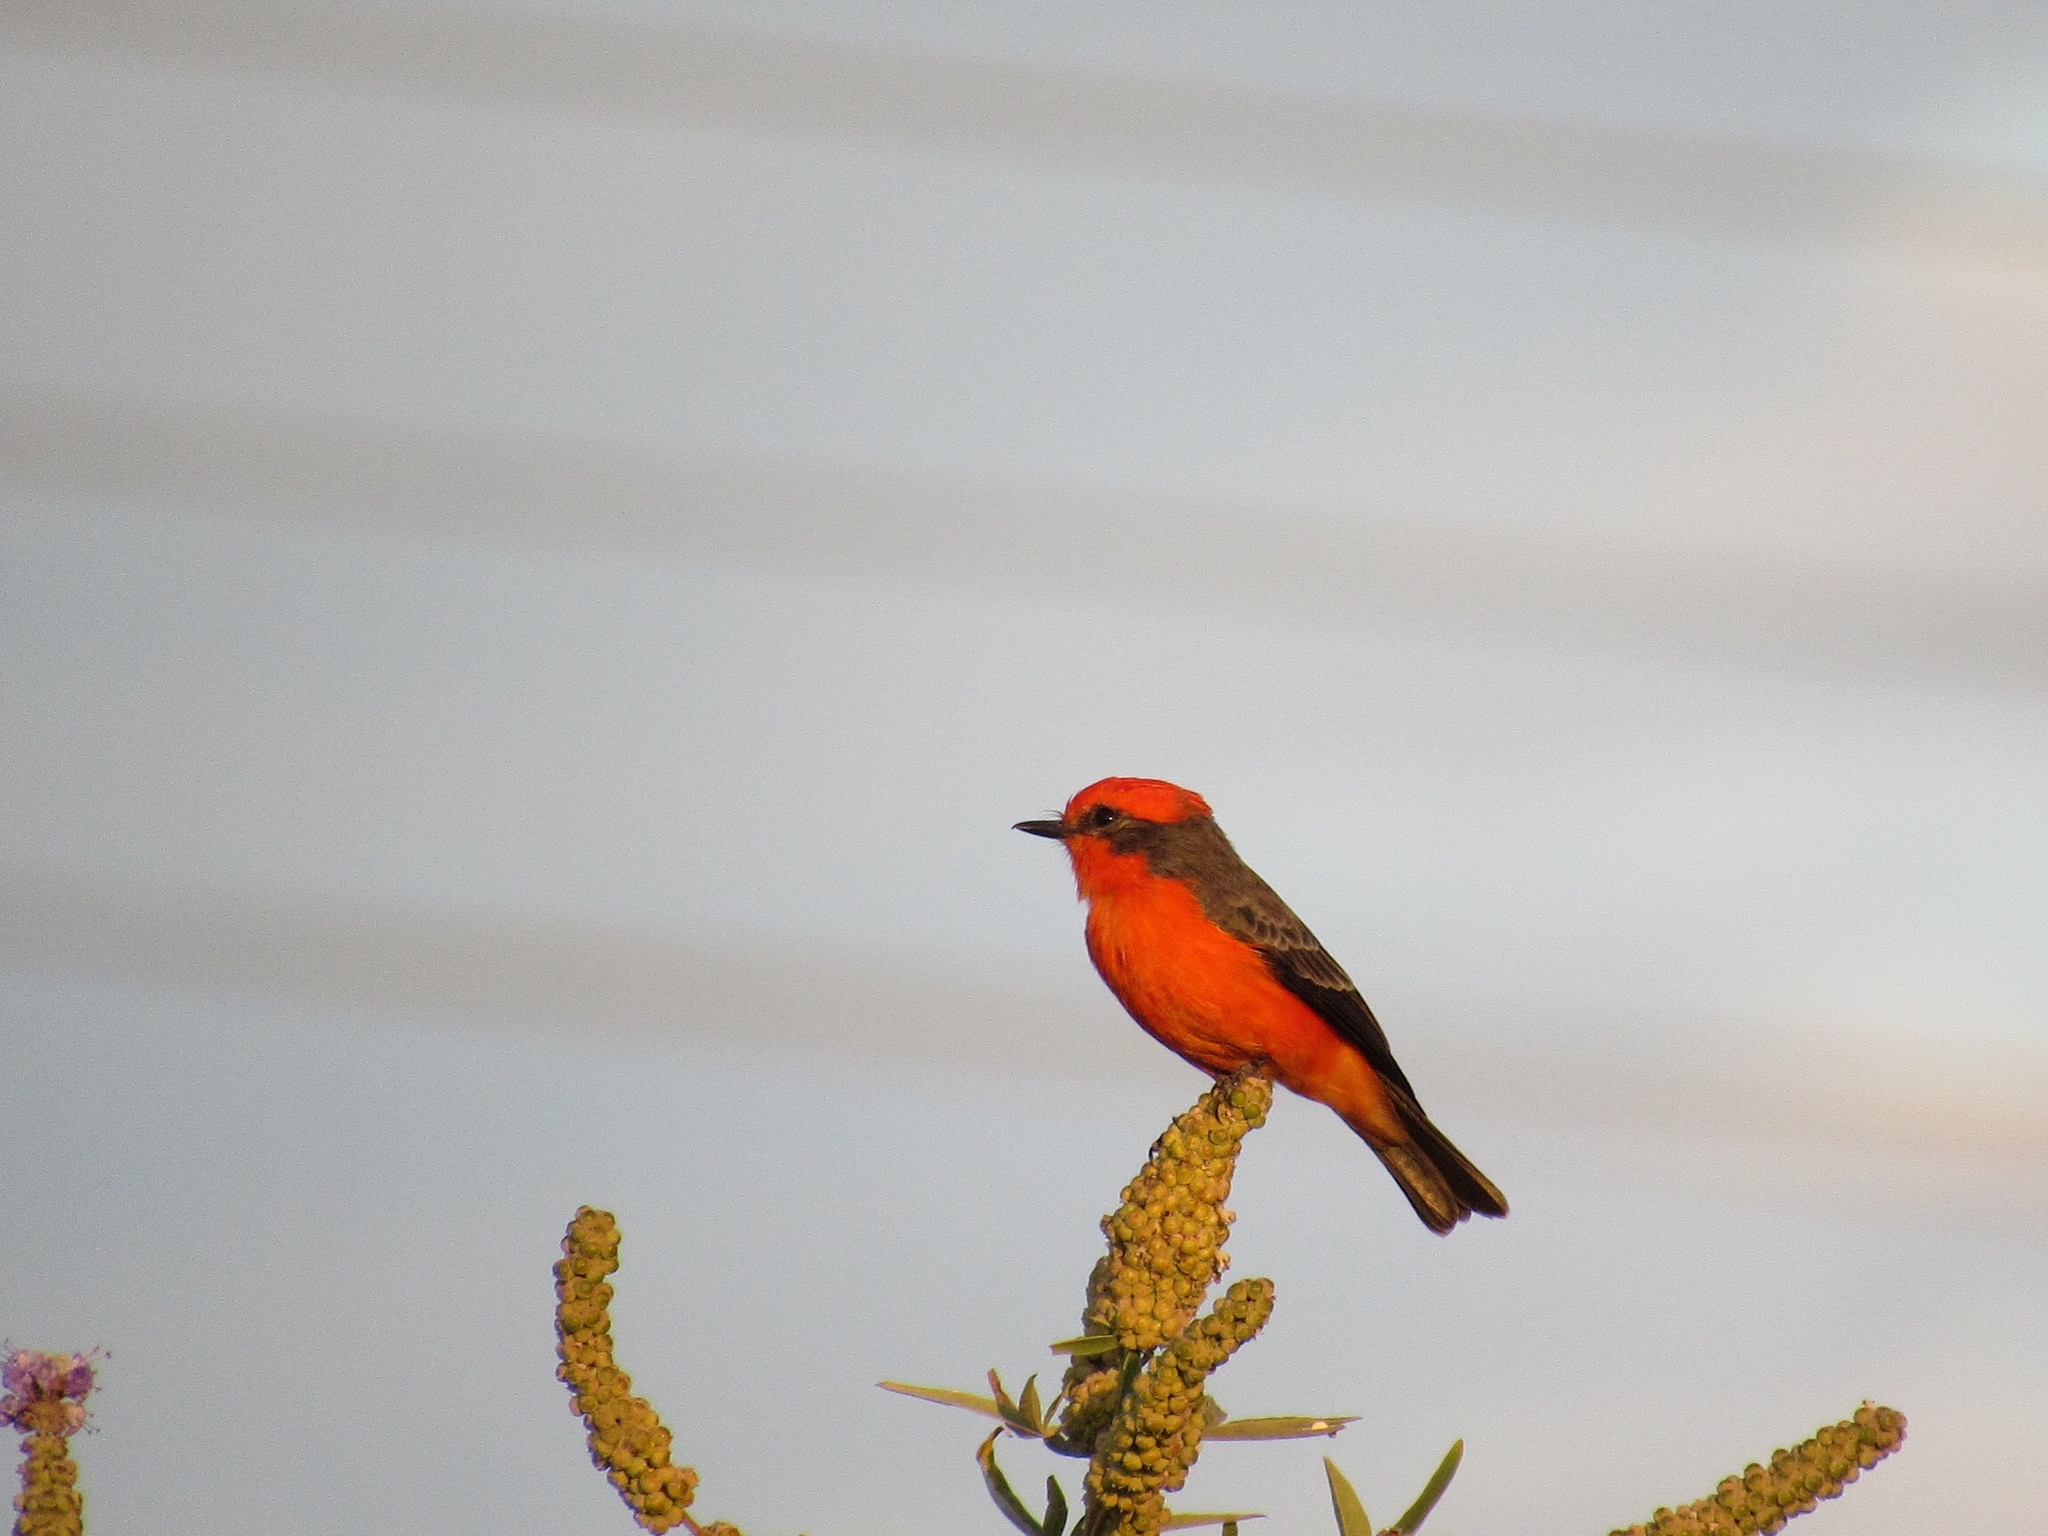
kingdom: Animalia
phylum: Chordata
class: Aves
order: Passeriformes
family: Tyrannidae
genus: Pyrocephalus
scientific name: Pyrocephalus rubinus
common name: Vermilion flycatcher
